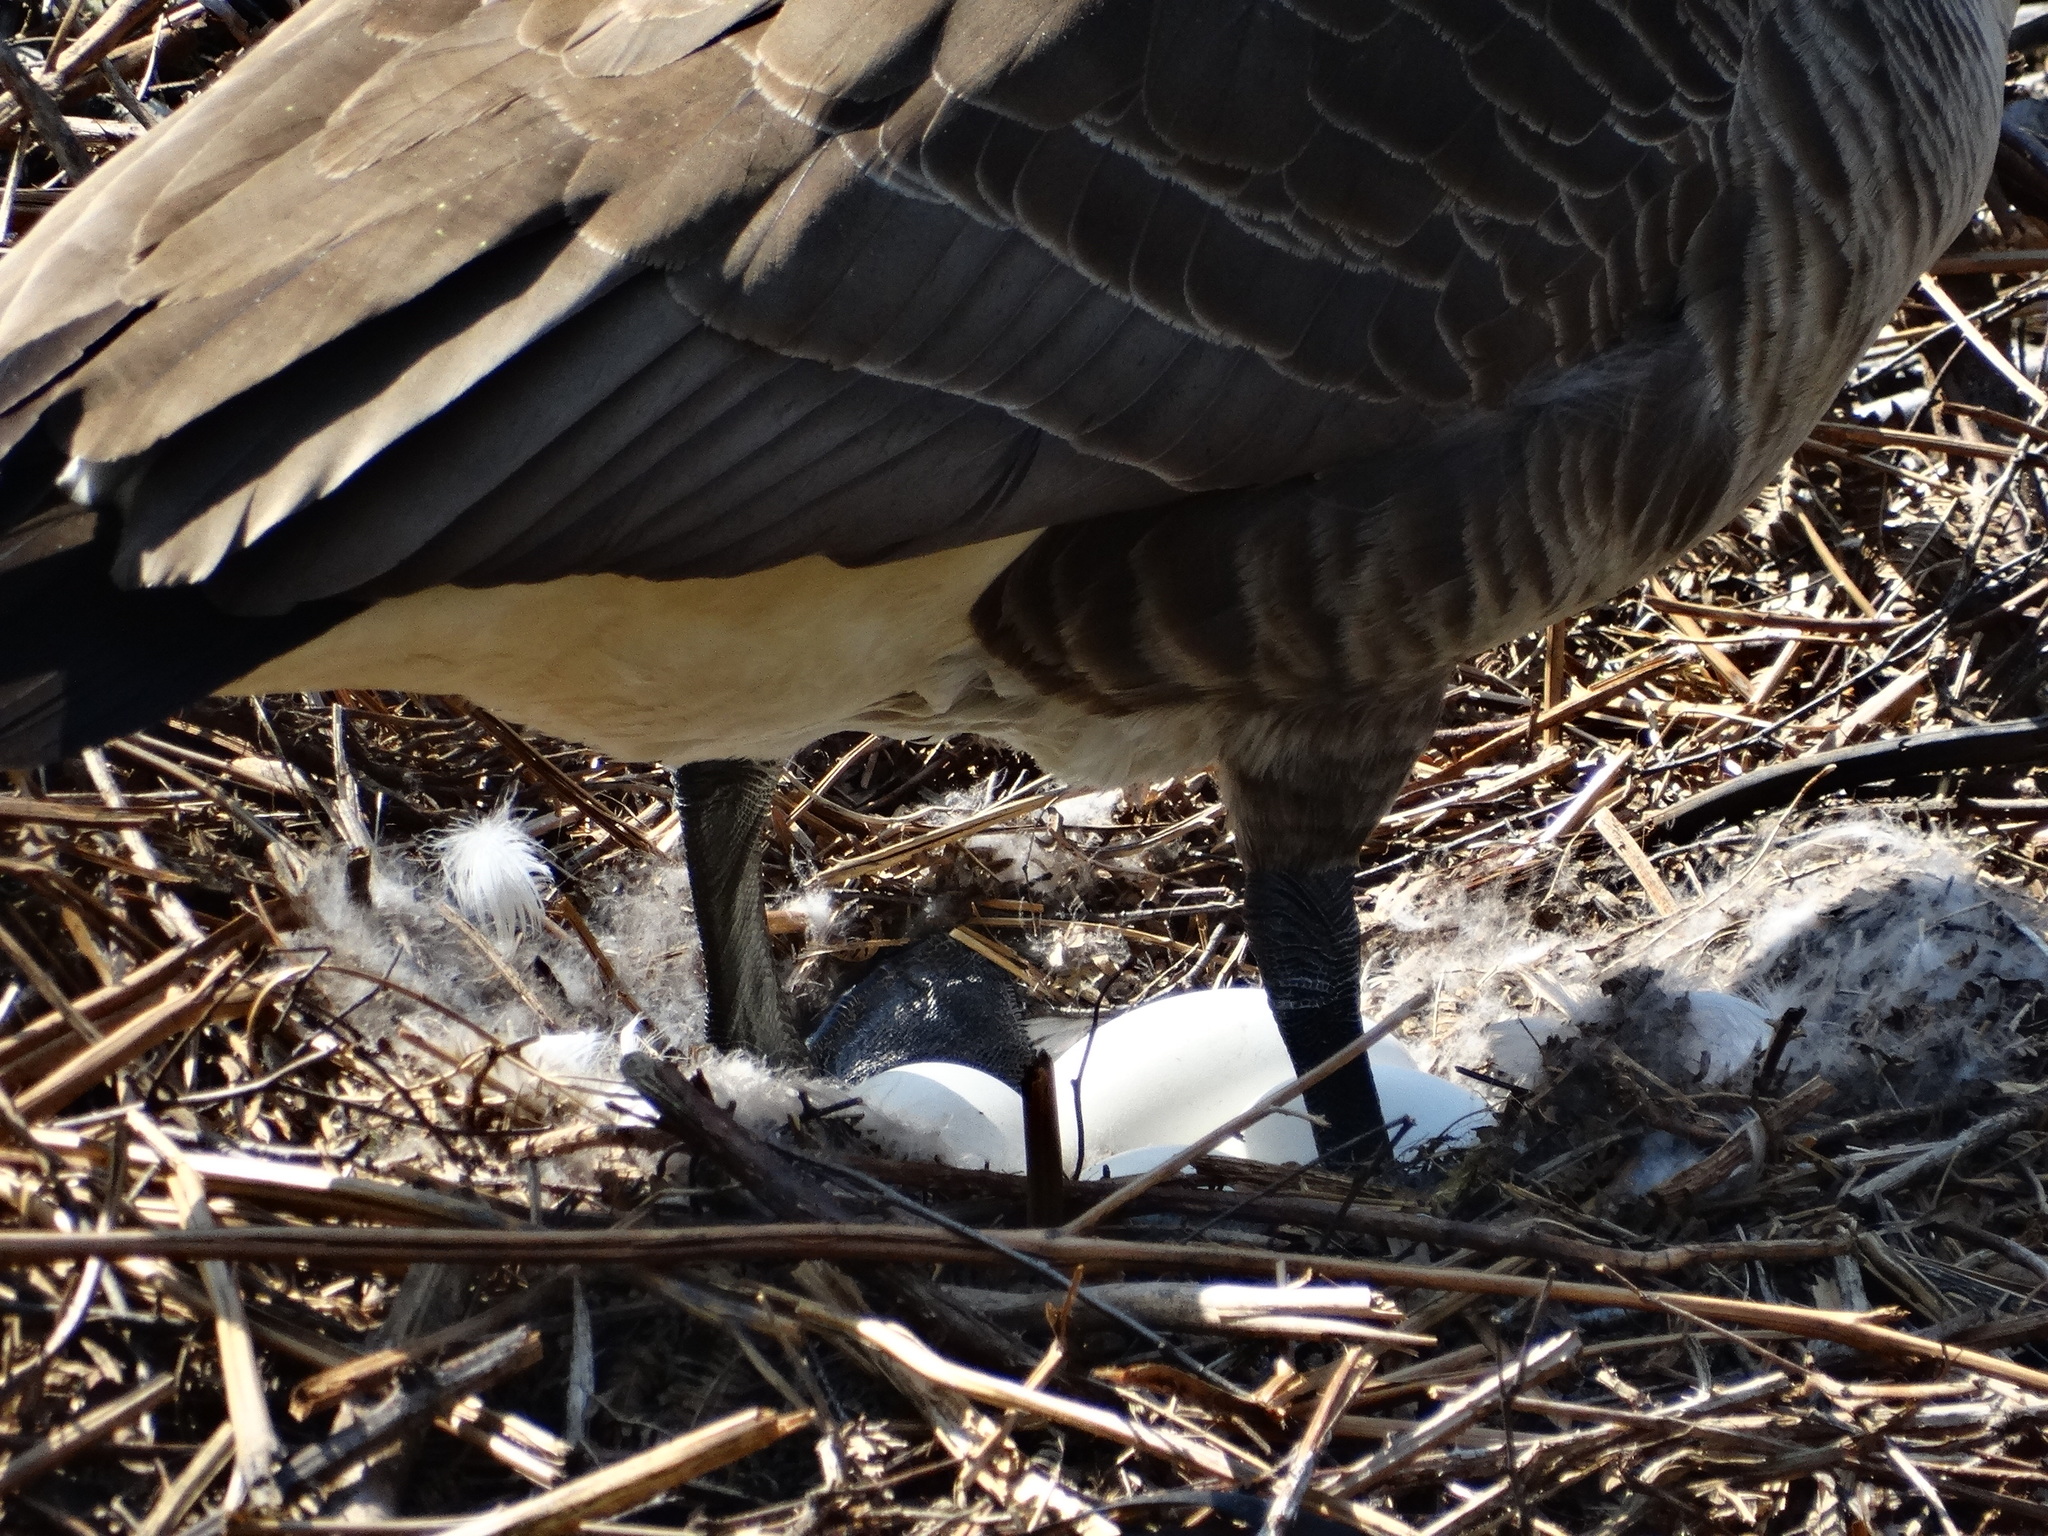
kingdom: Animalia
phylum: Chordata
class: Aves
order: Anseriformes
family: Anatidae
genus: Branta
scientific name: Branta canadensis
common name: Canada goose
